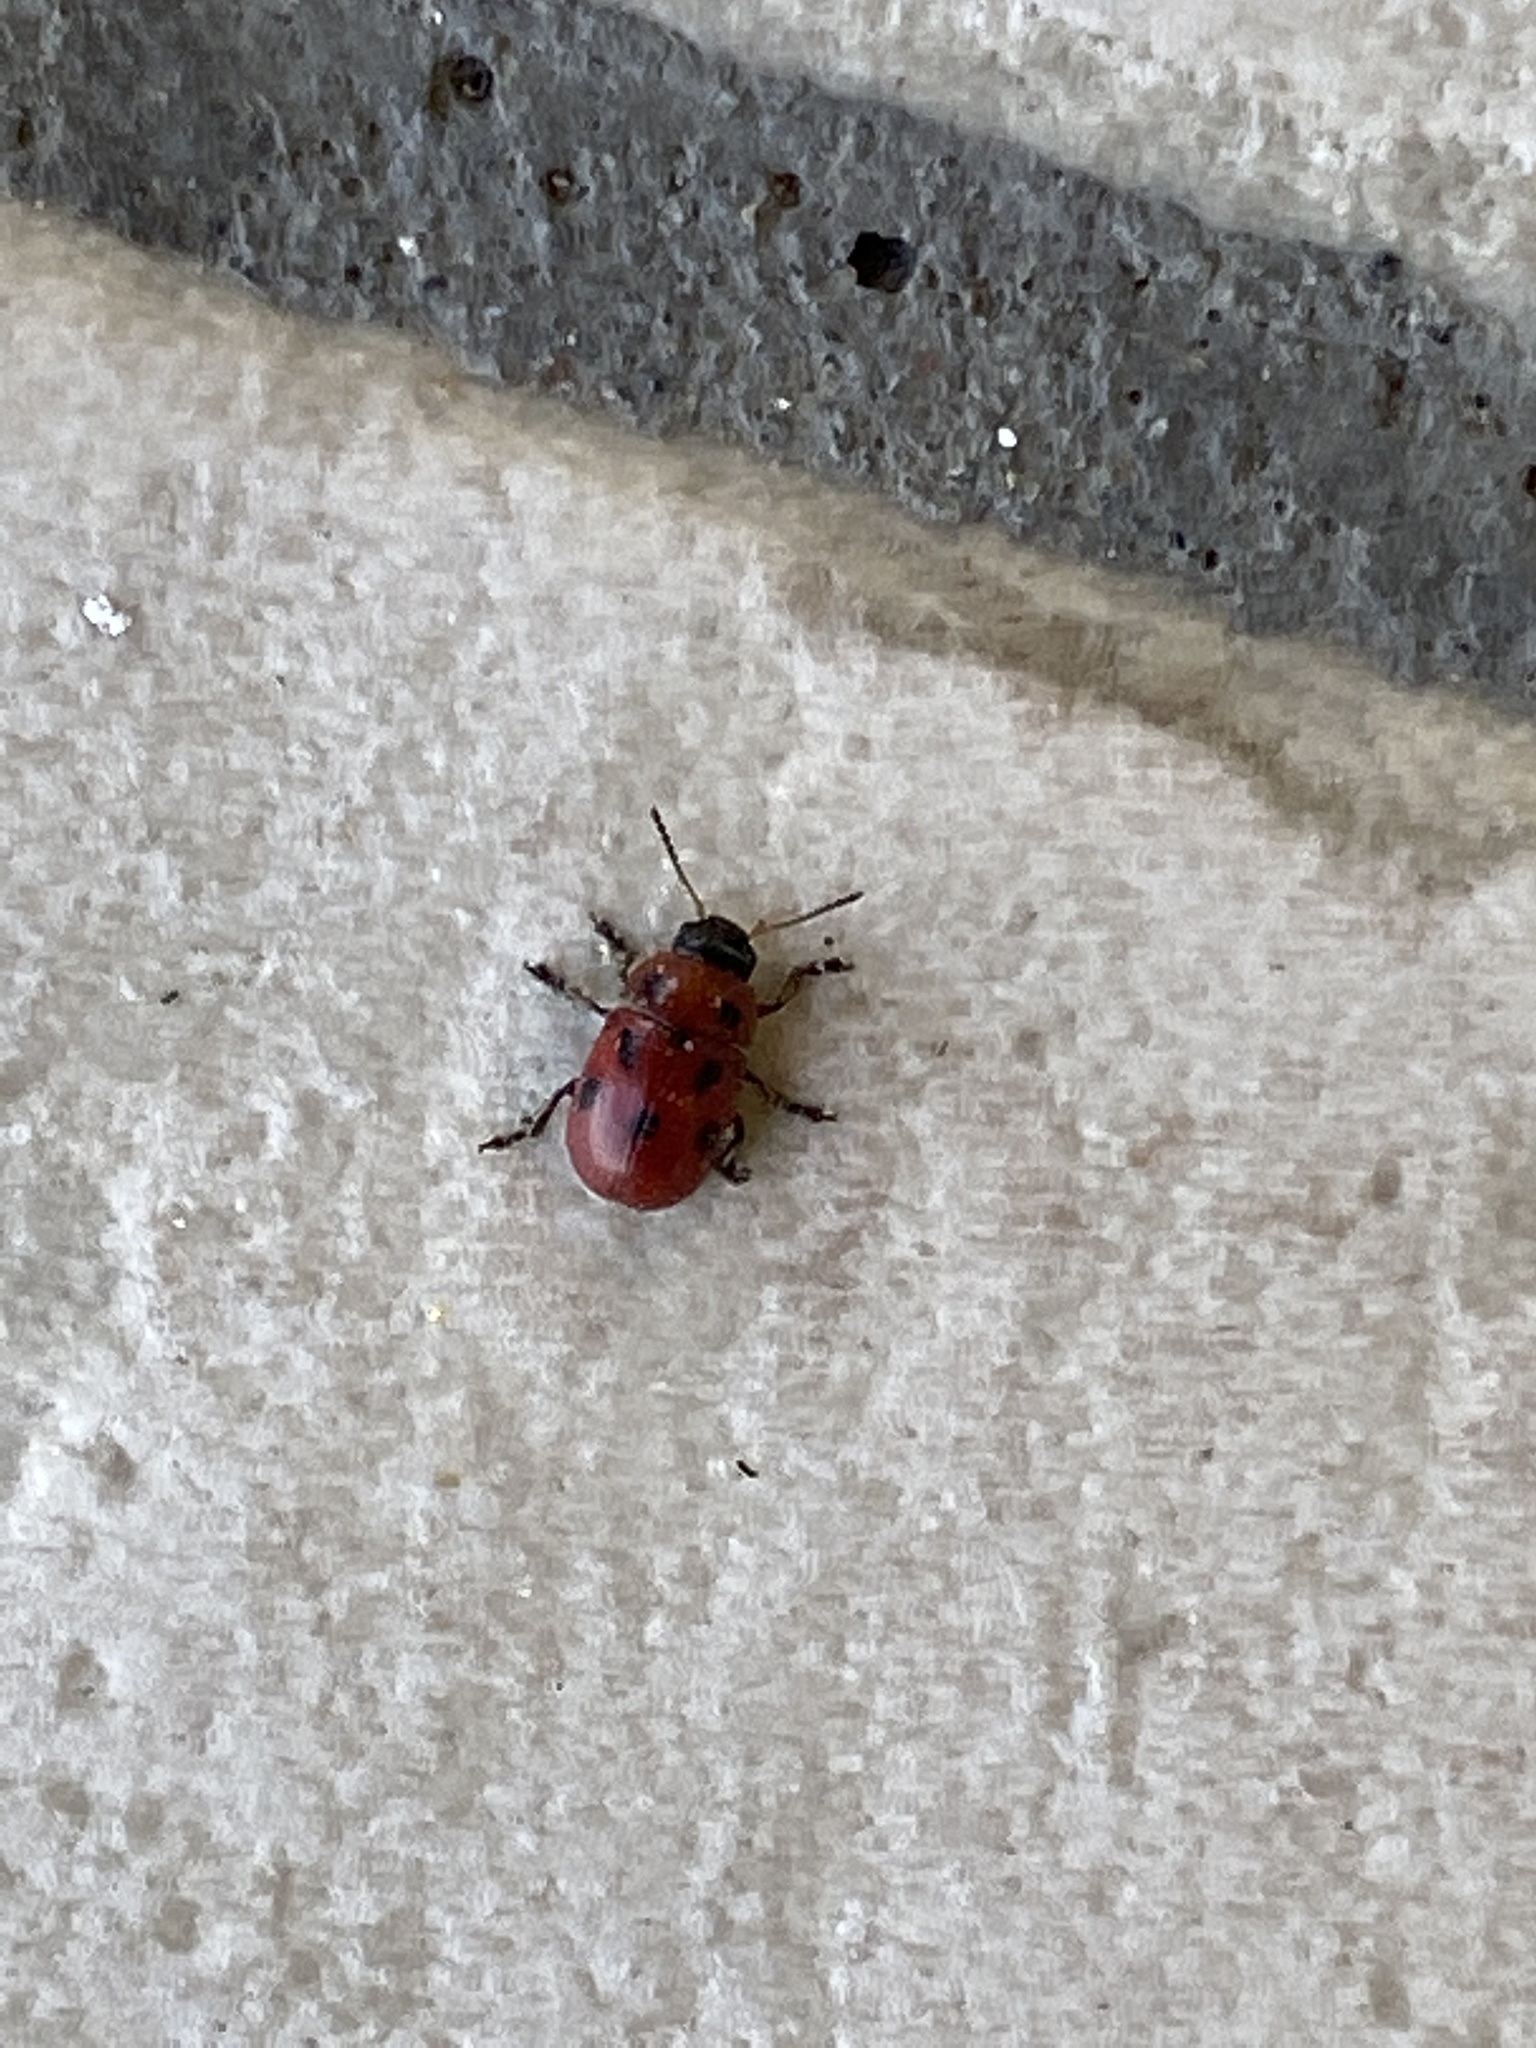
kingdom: Animalia
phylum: Arthropoda
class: Insecta
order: Coleoptera
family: Chrysomelidae
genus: Gonioctena
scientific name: Gonioctena fornicata
